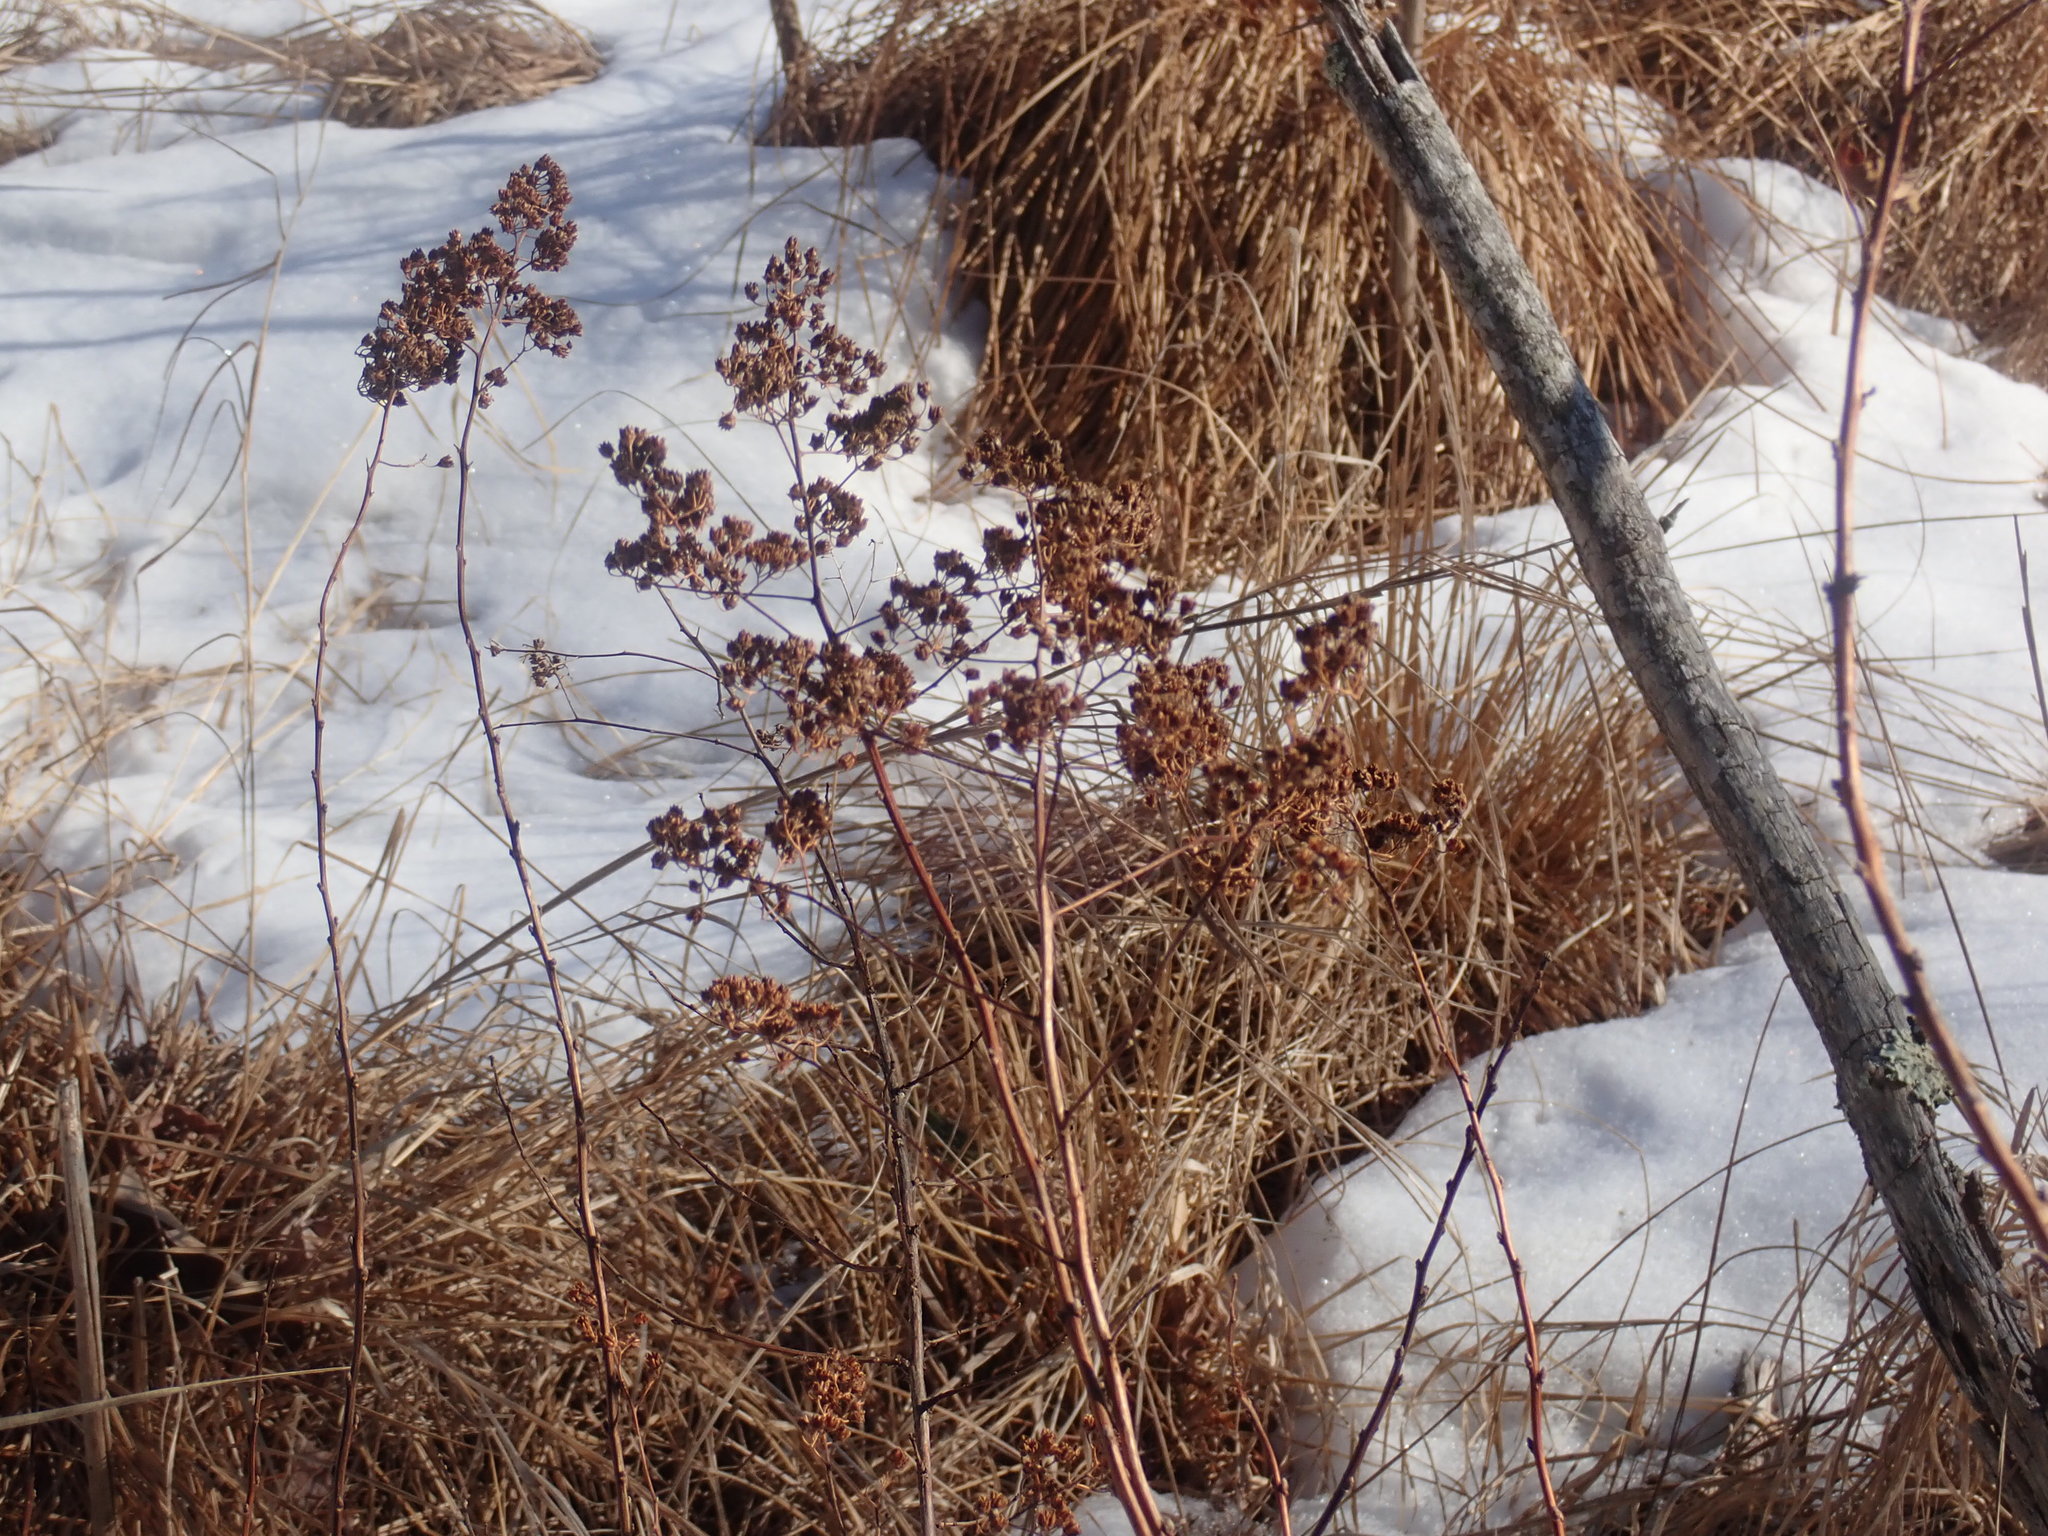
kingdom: Plantae
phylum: Tracheophyta
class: Magnoliopsida
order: Rosales
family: Rosaceae
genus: Spiraea
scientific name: Spiraea alba
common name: Pale bridewort
